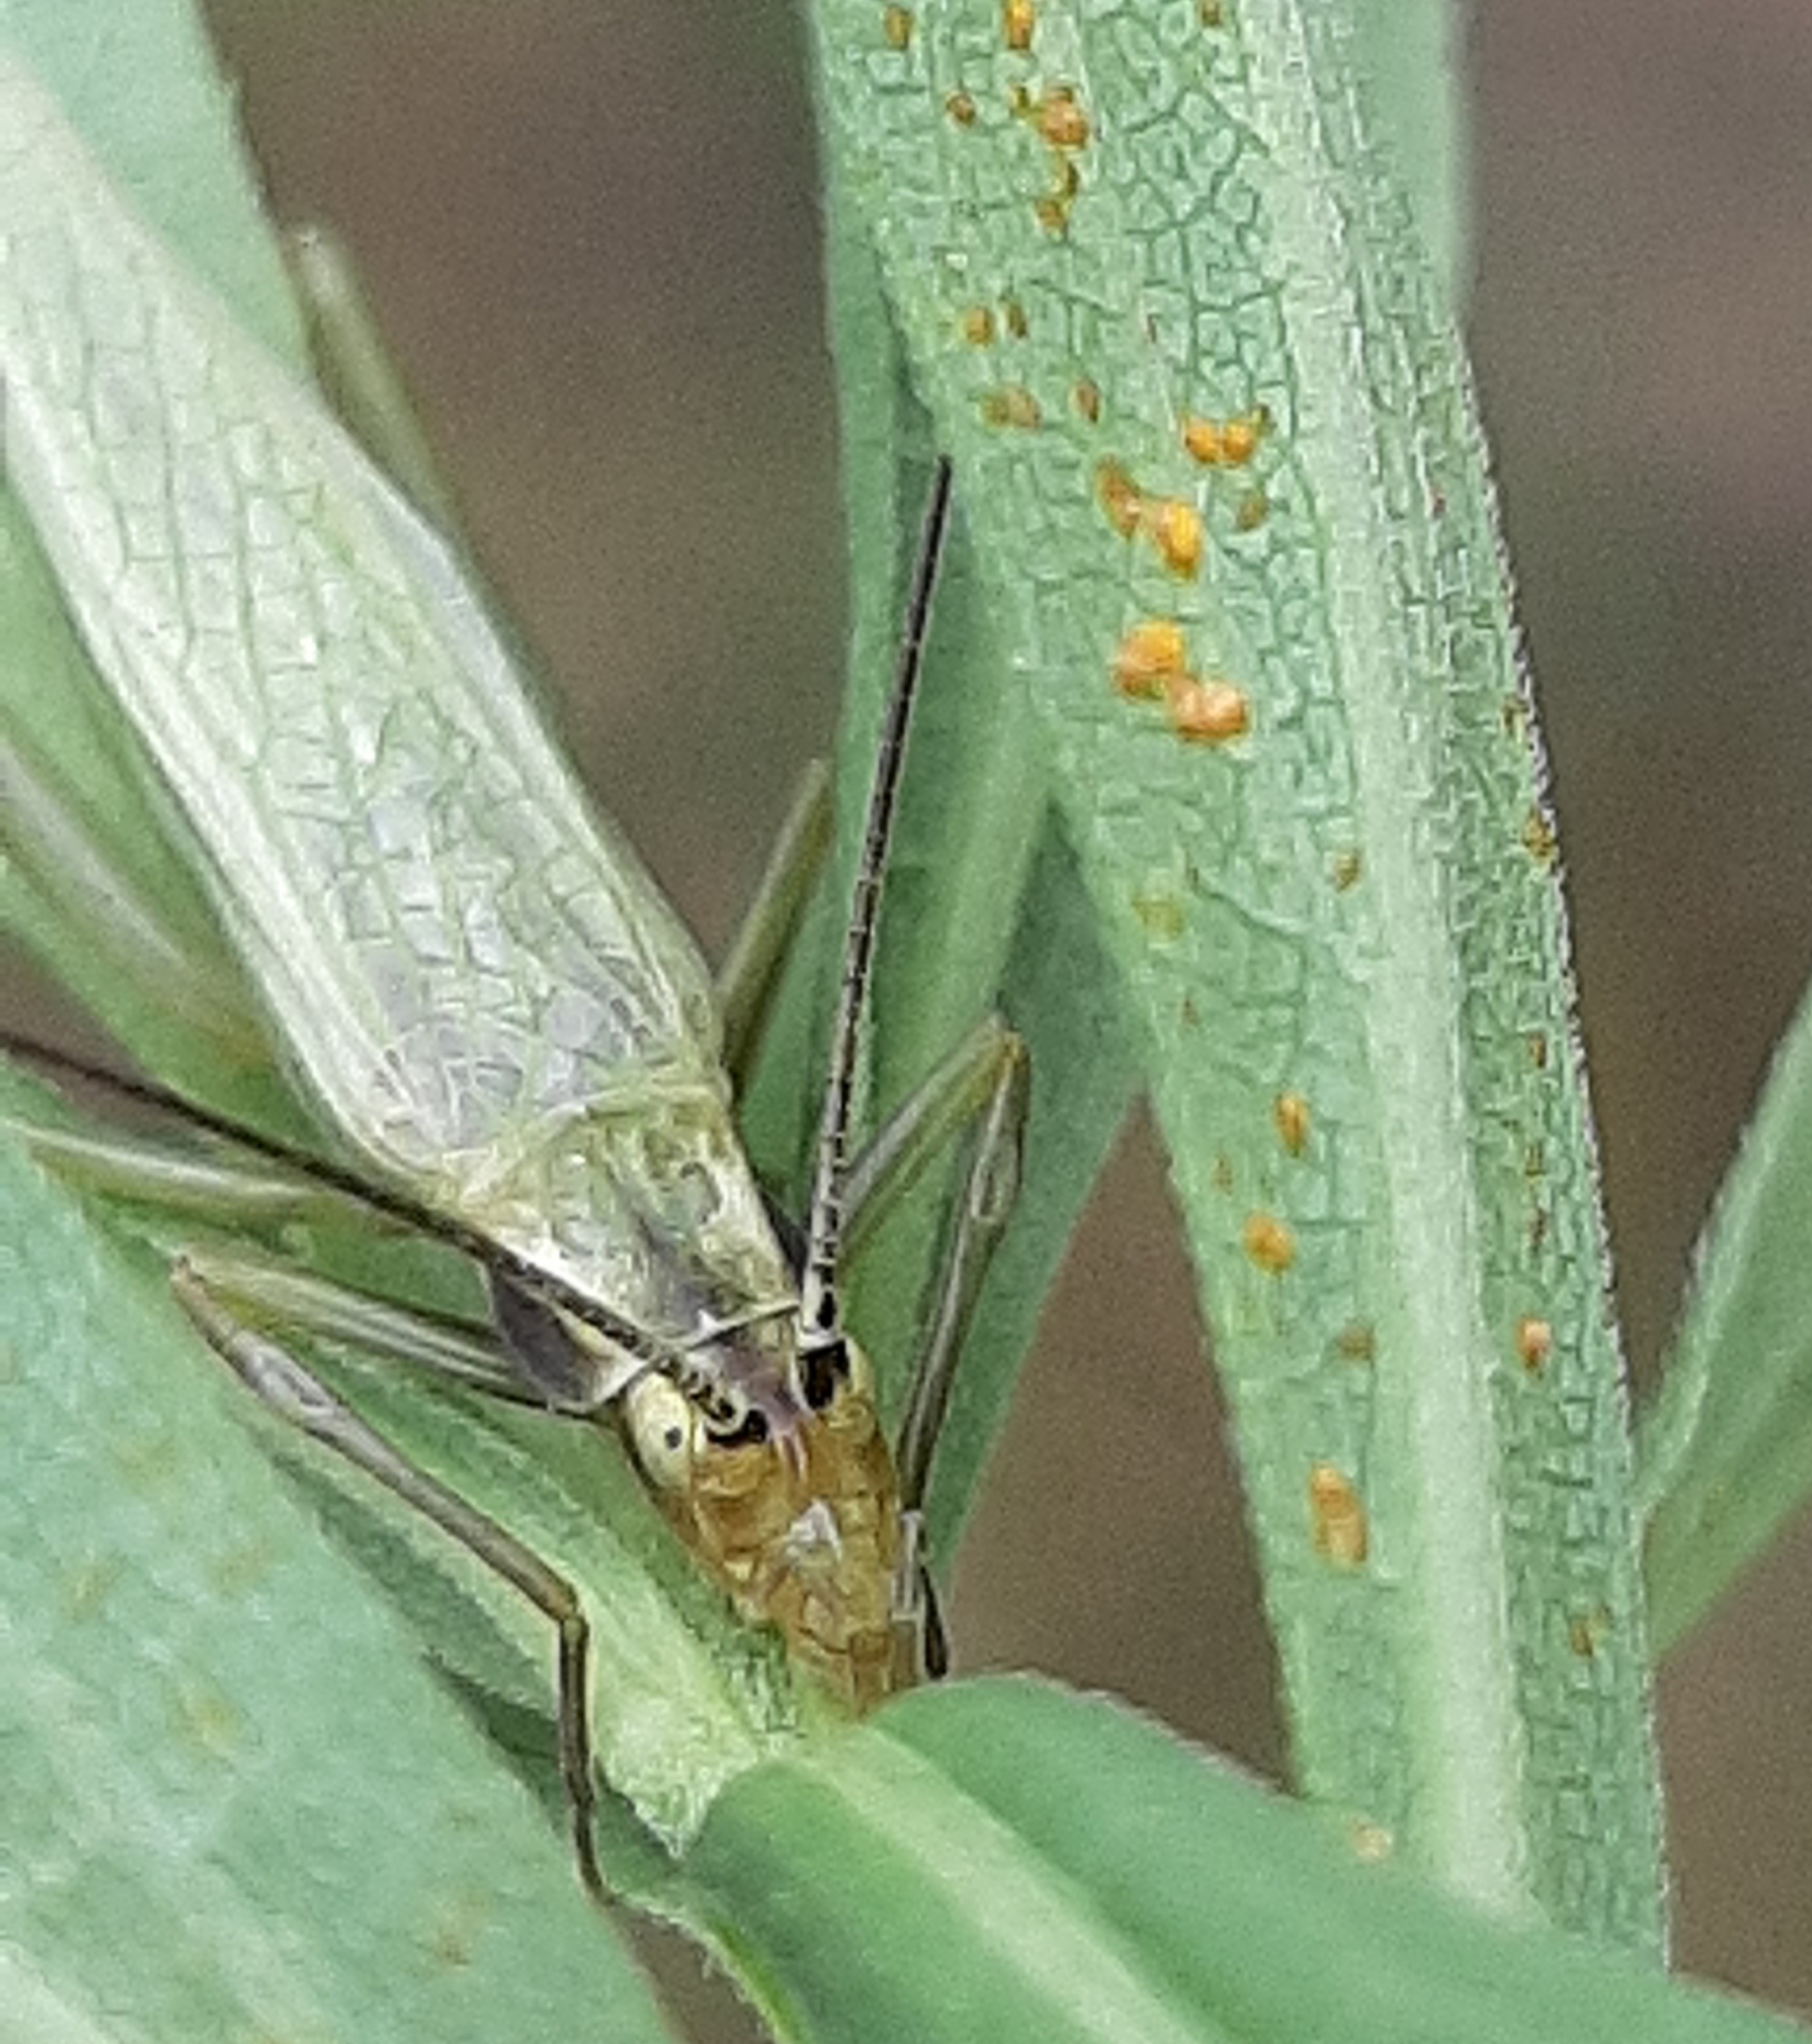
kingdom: Animalia
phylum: Arthropoda
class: Insecta
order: Orthoptera
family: Gryllidae
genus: Oecanthus
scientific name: Oecanthus nigricornis
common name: Black-horned tree cricket
